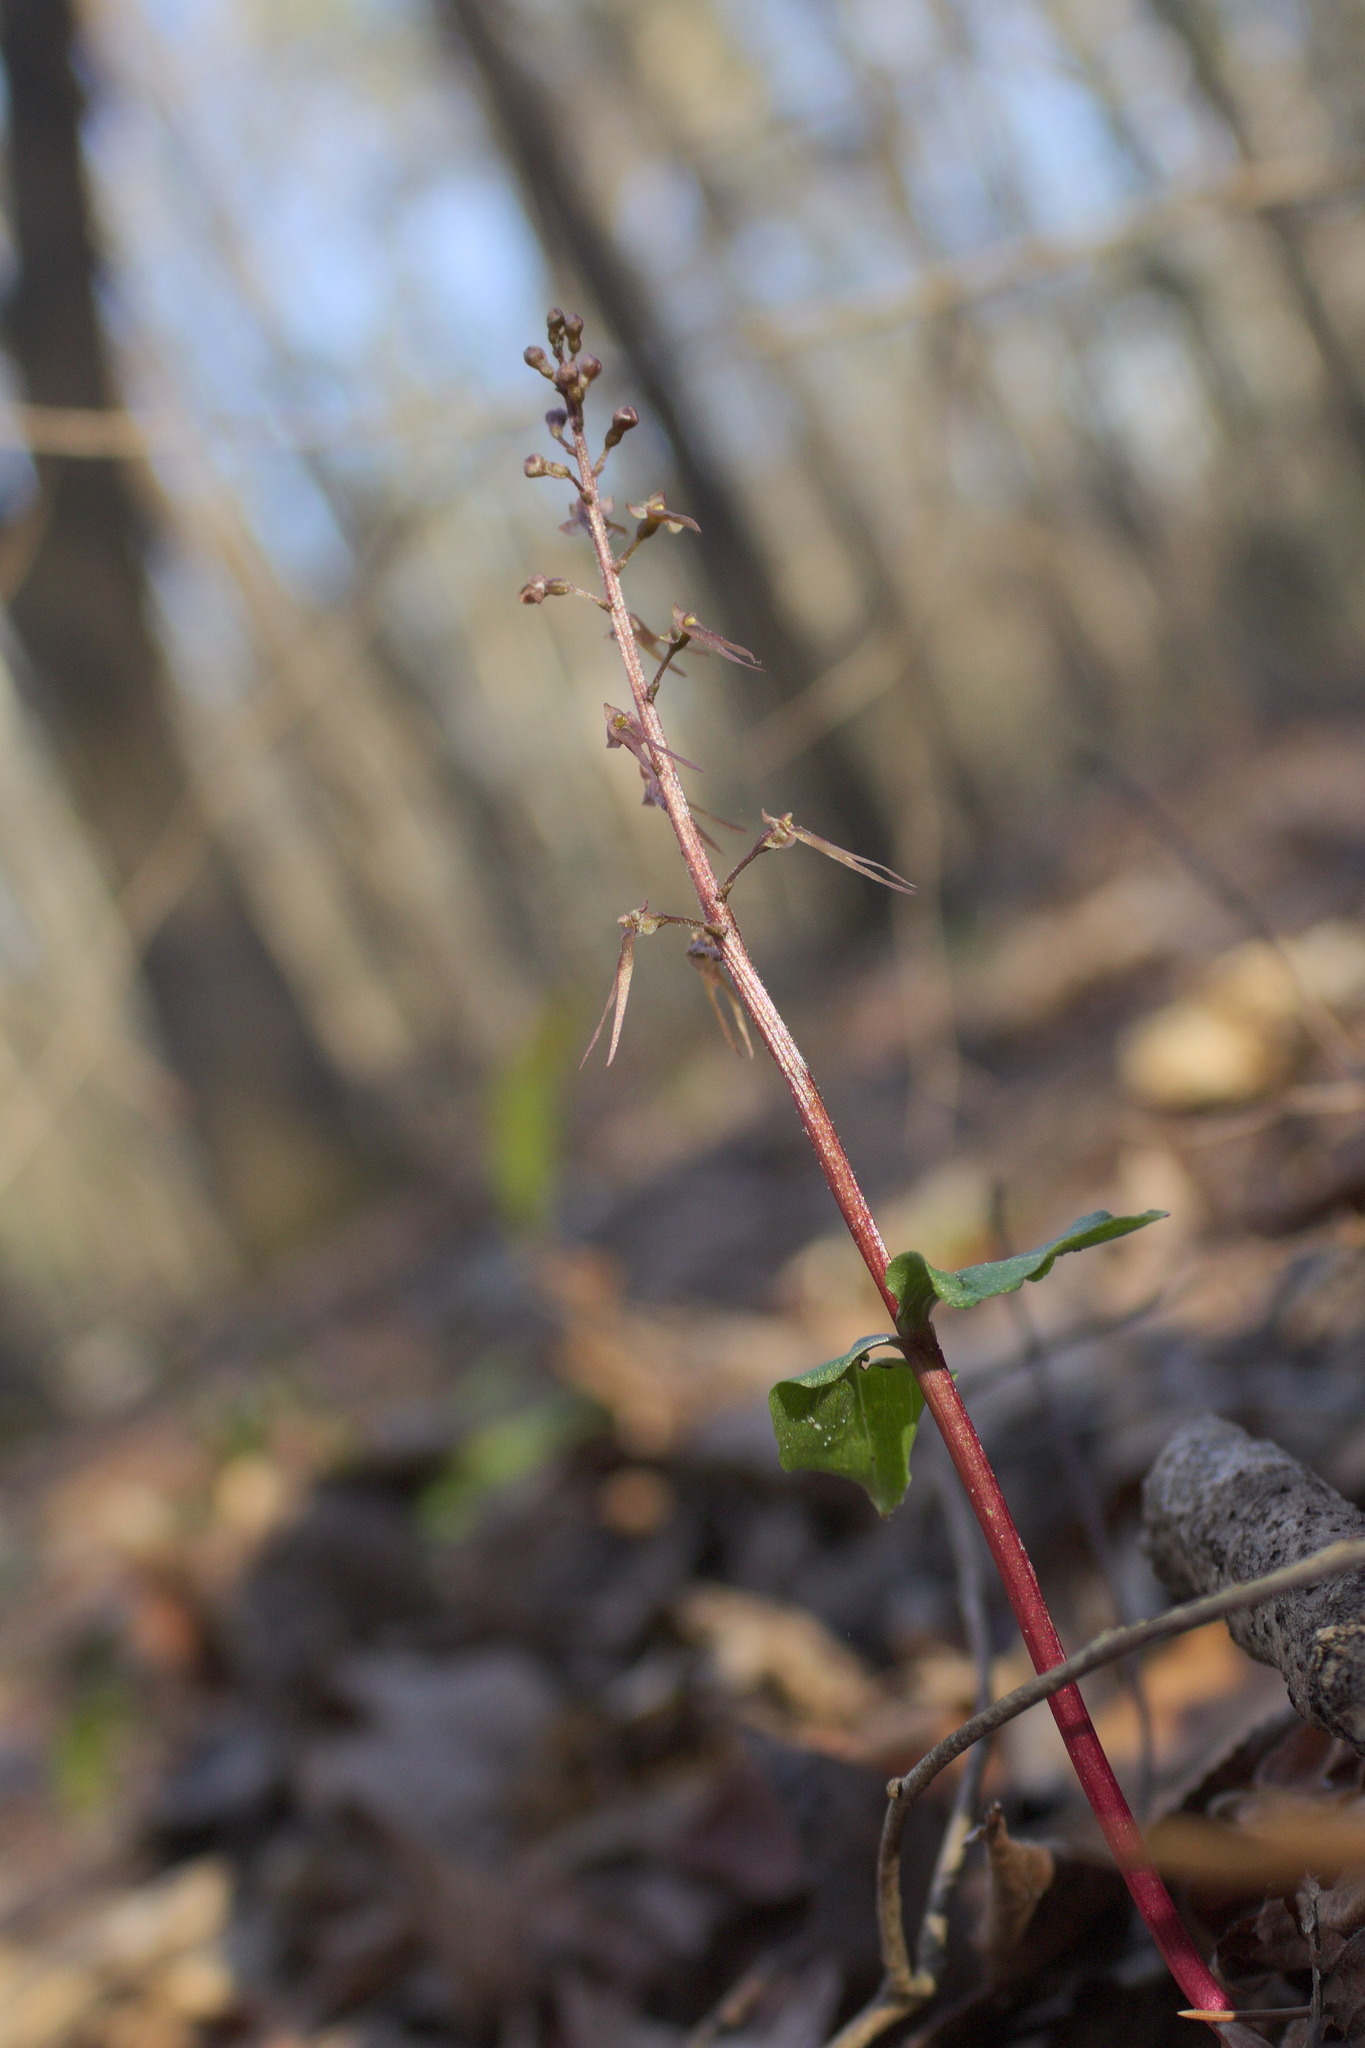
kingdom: Plantae
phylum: Tracheophyta
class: Liliopsida
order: Asparagales
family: Orchidaceae
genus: Neottia
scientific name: Neottia bifolia
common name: Southern twayblade
